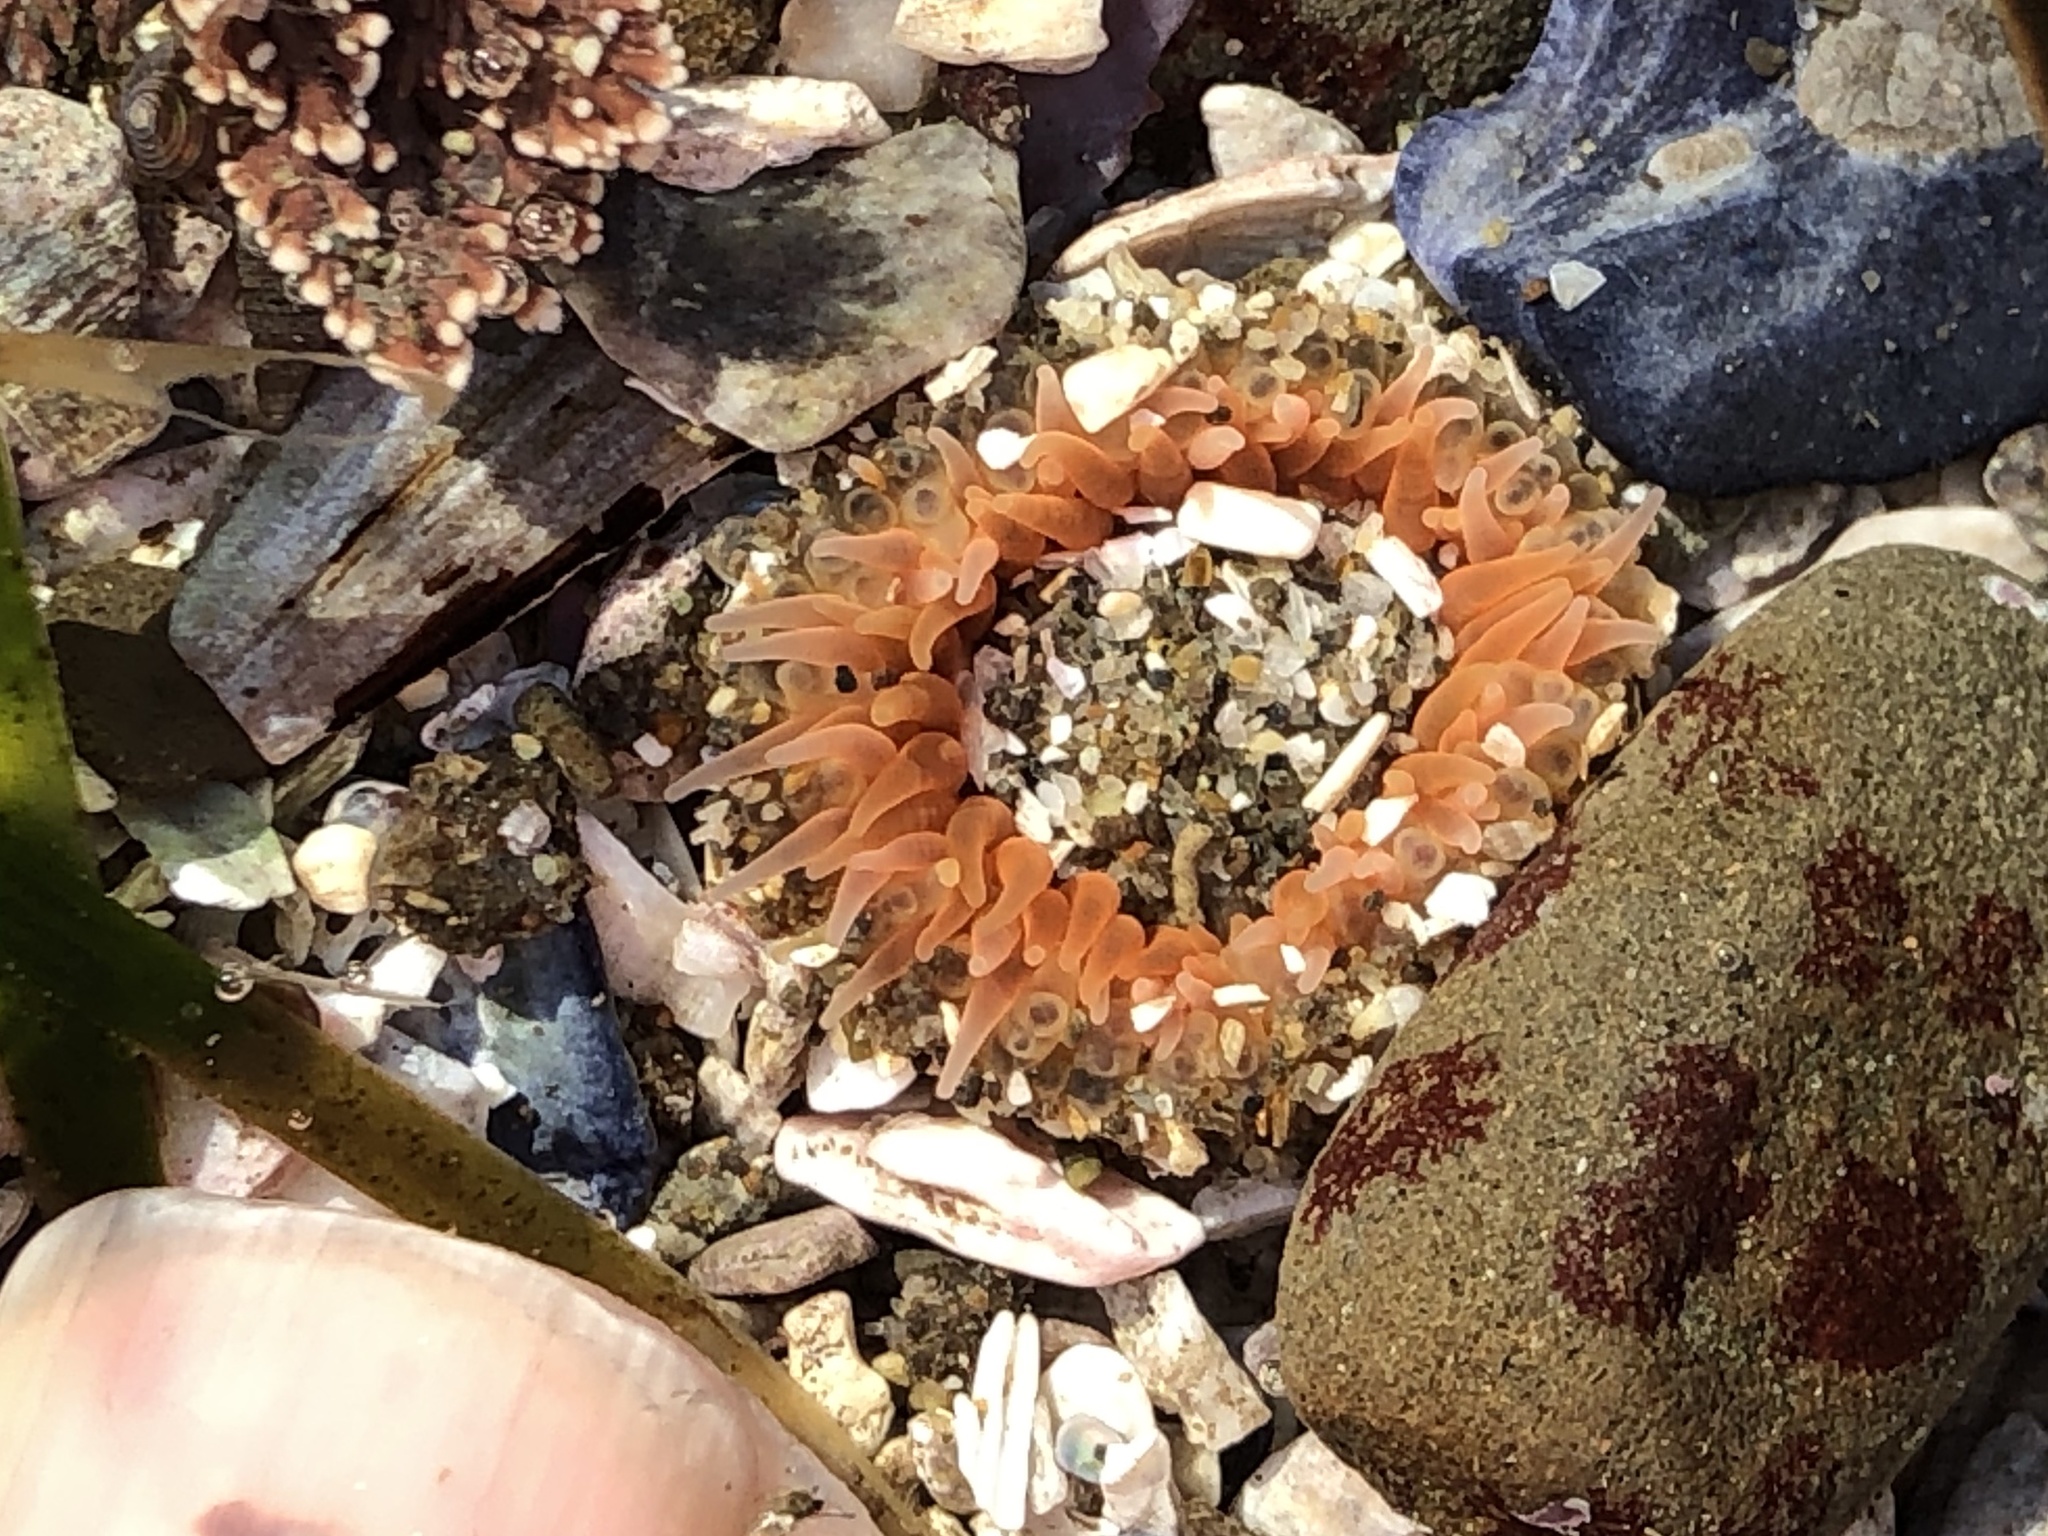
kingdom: Animalia
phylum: Cnidaria
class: Anthozoa
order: Actiniaria
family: Actiniidae
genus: Anthopleura
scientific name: Anthopleura artemisia
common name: Buried sea anemone
